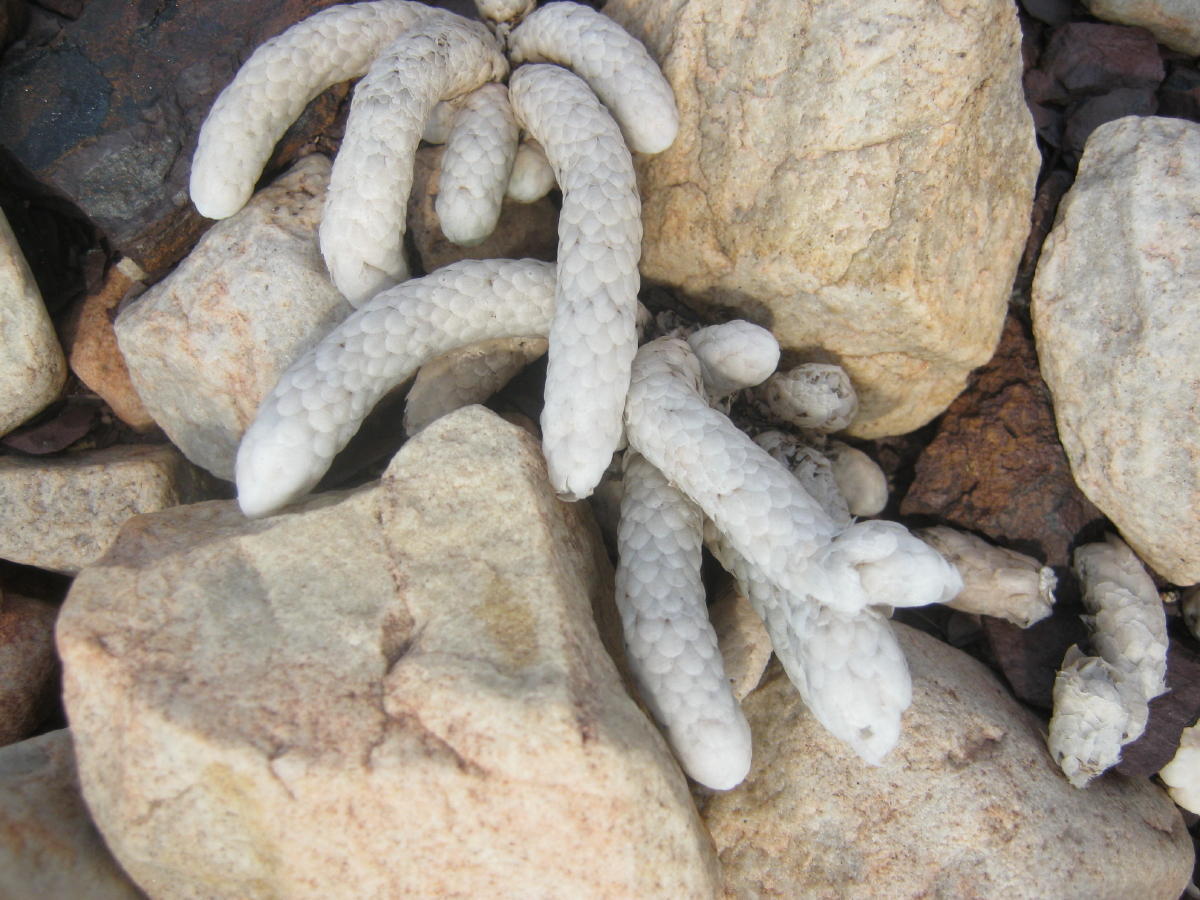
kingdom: Plantae
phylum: Tracheophyta
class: Magnoliopsida
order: Caryophyllales
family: Anacampserotaceae
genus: Avonia
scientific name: Avonia papyracea
